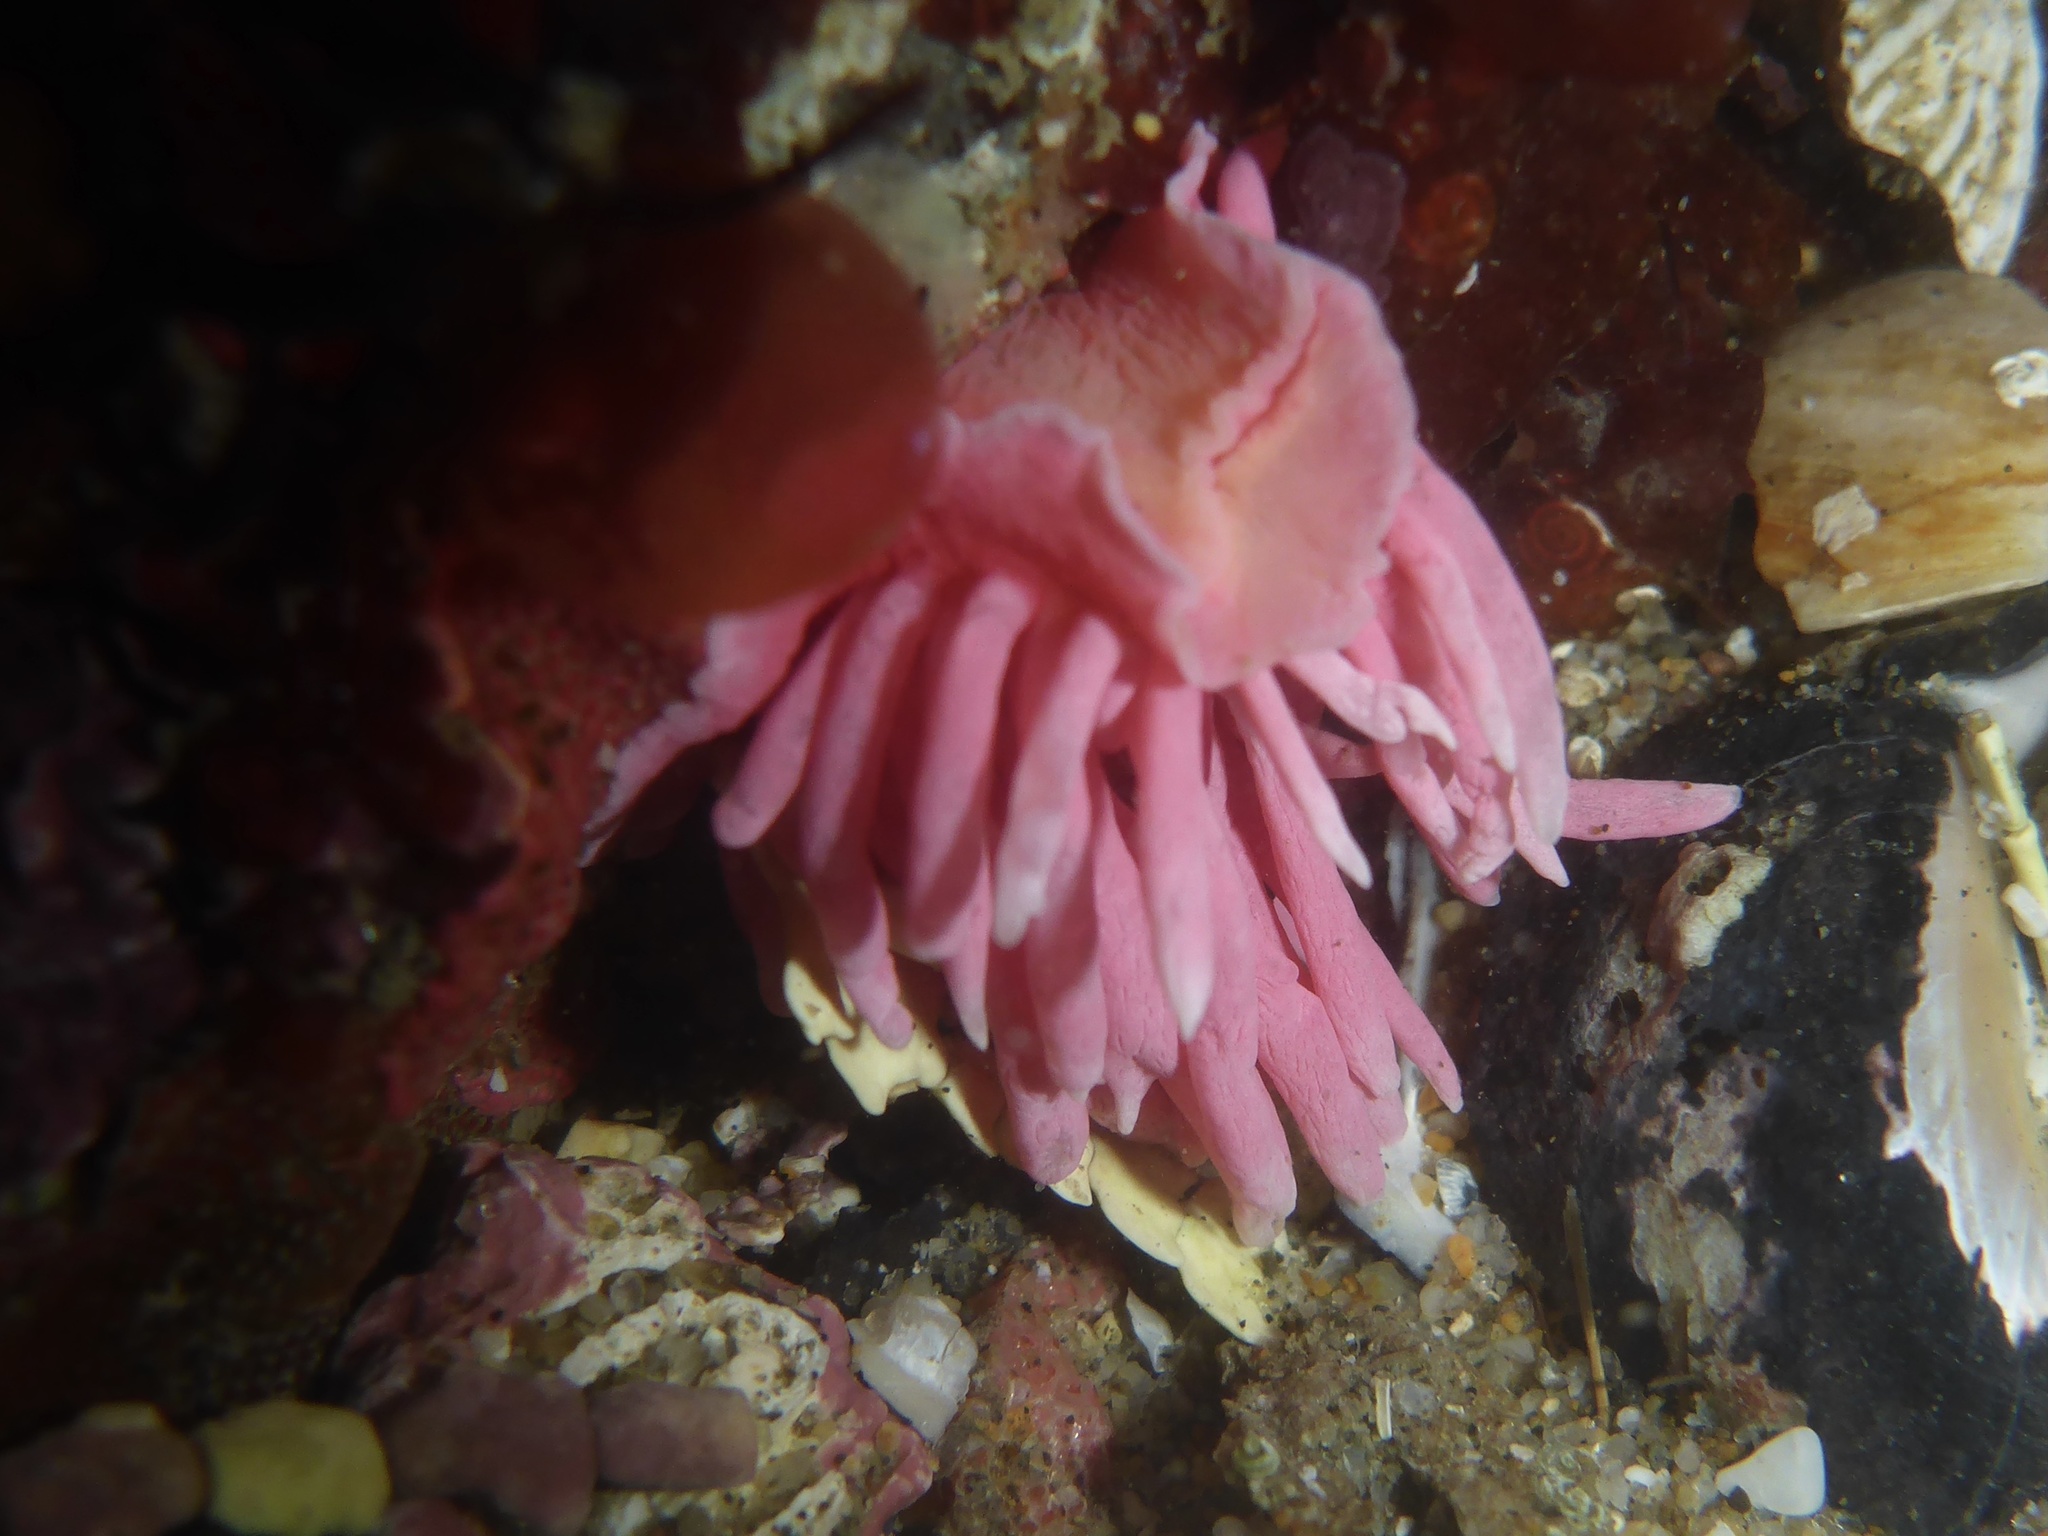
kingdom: Animalia
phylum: Mollusca
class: Gastropoda
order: Nudibranchia
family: Goniodorididae
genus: Okenia
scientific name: Okenia
